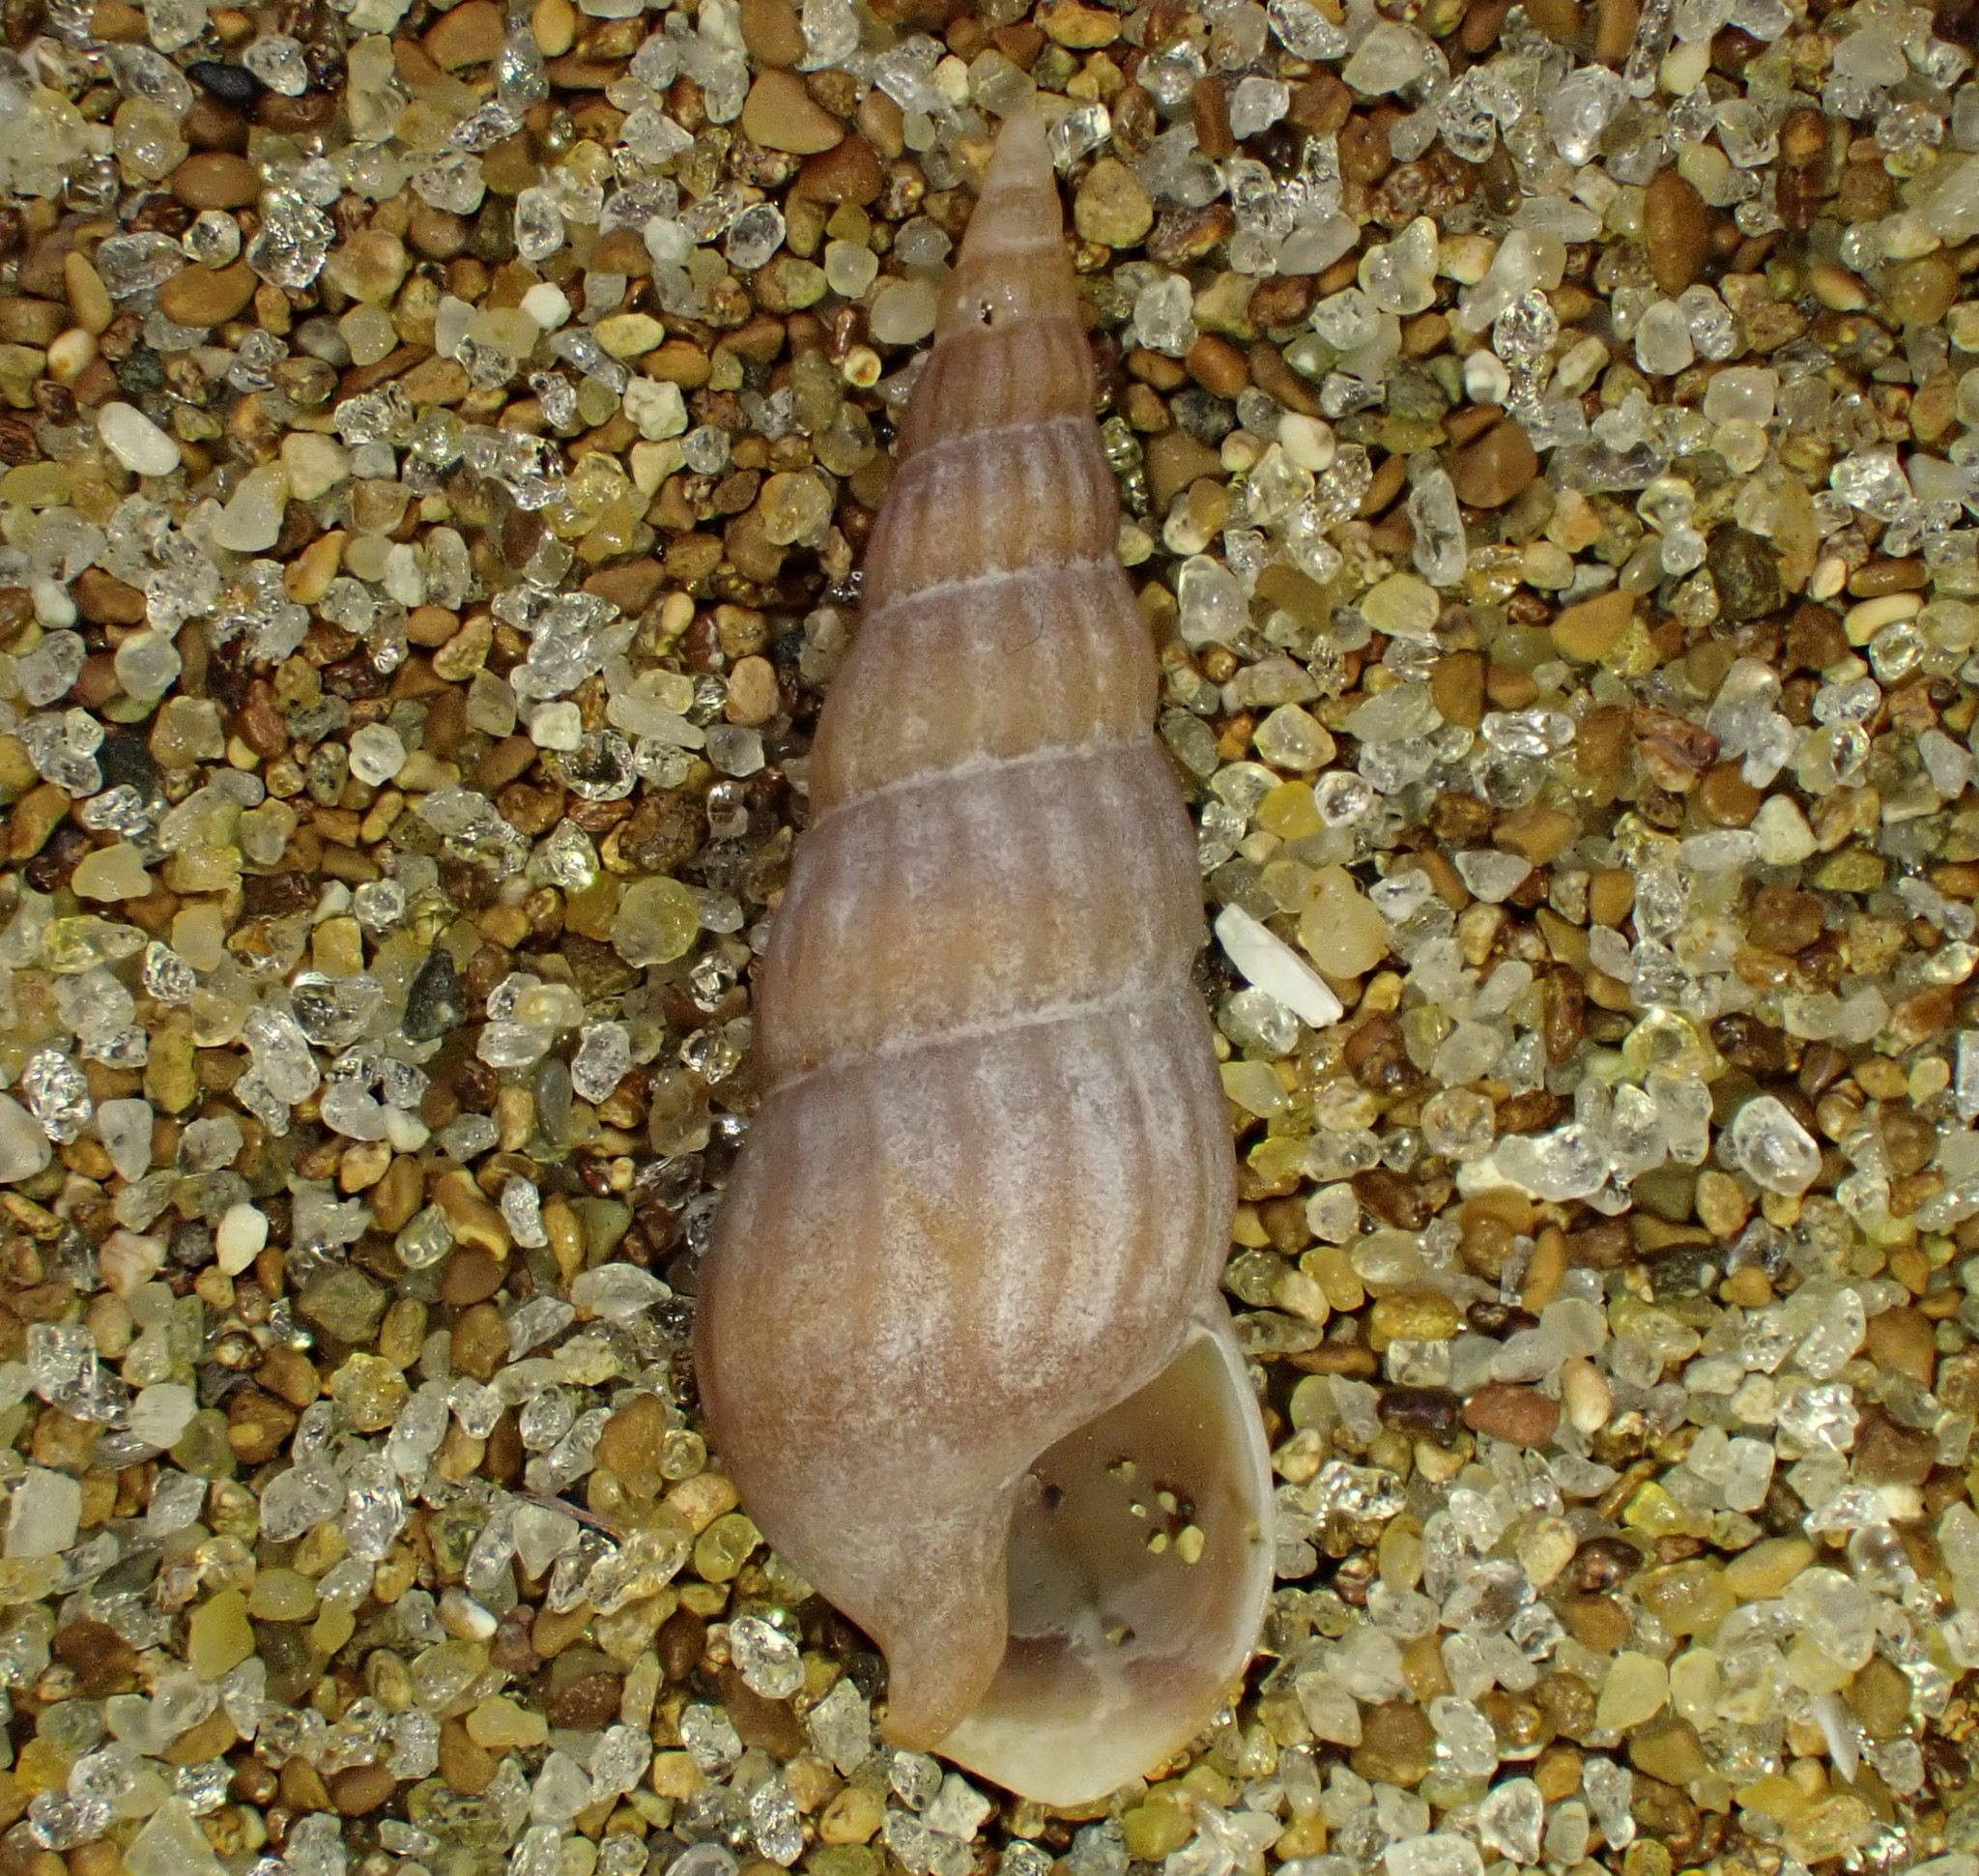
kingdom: Animalia
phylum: Mollusca
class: Gastropoda
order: Neogastropoda
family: Terebridae
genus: Duplicaria
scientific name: Duplicaria tristis
